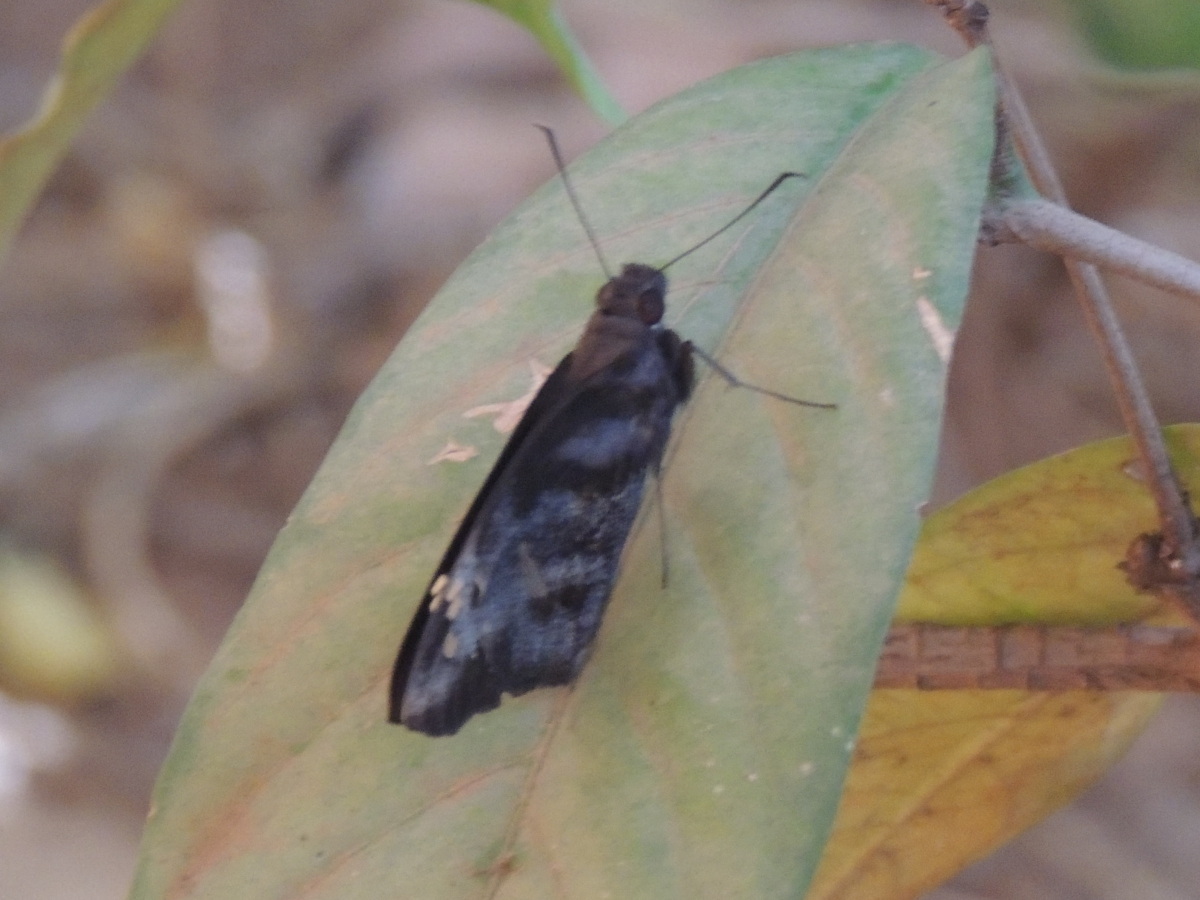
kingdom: Animalia
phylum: Arthropoda
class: Insecta
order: Lepidoptera
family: Hesperiidae
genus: Gangara
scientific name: Gangara thyrsis
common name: Giant redeye
